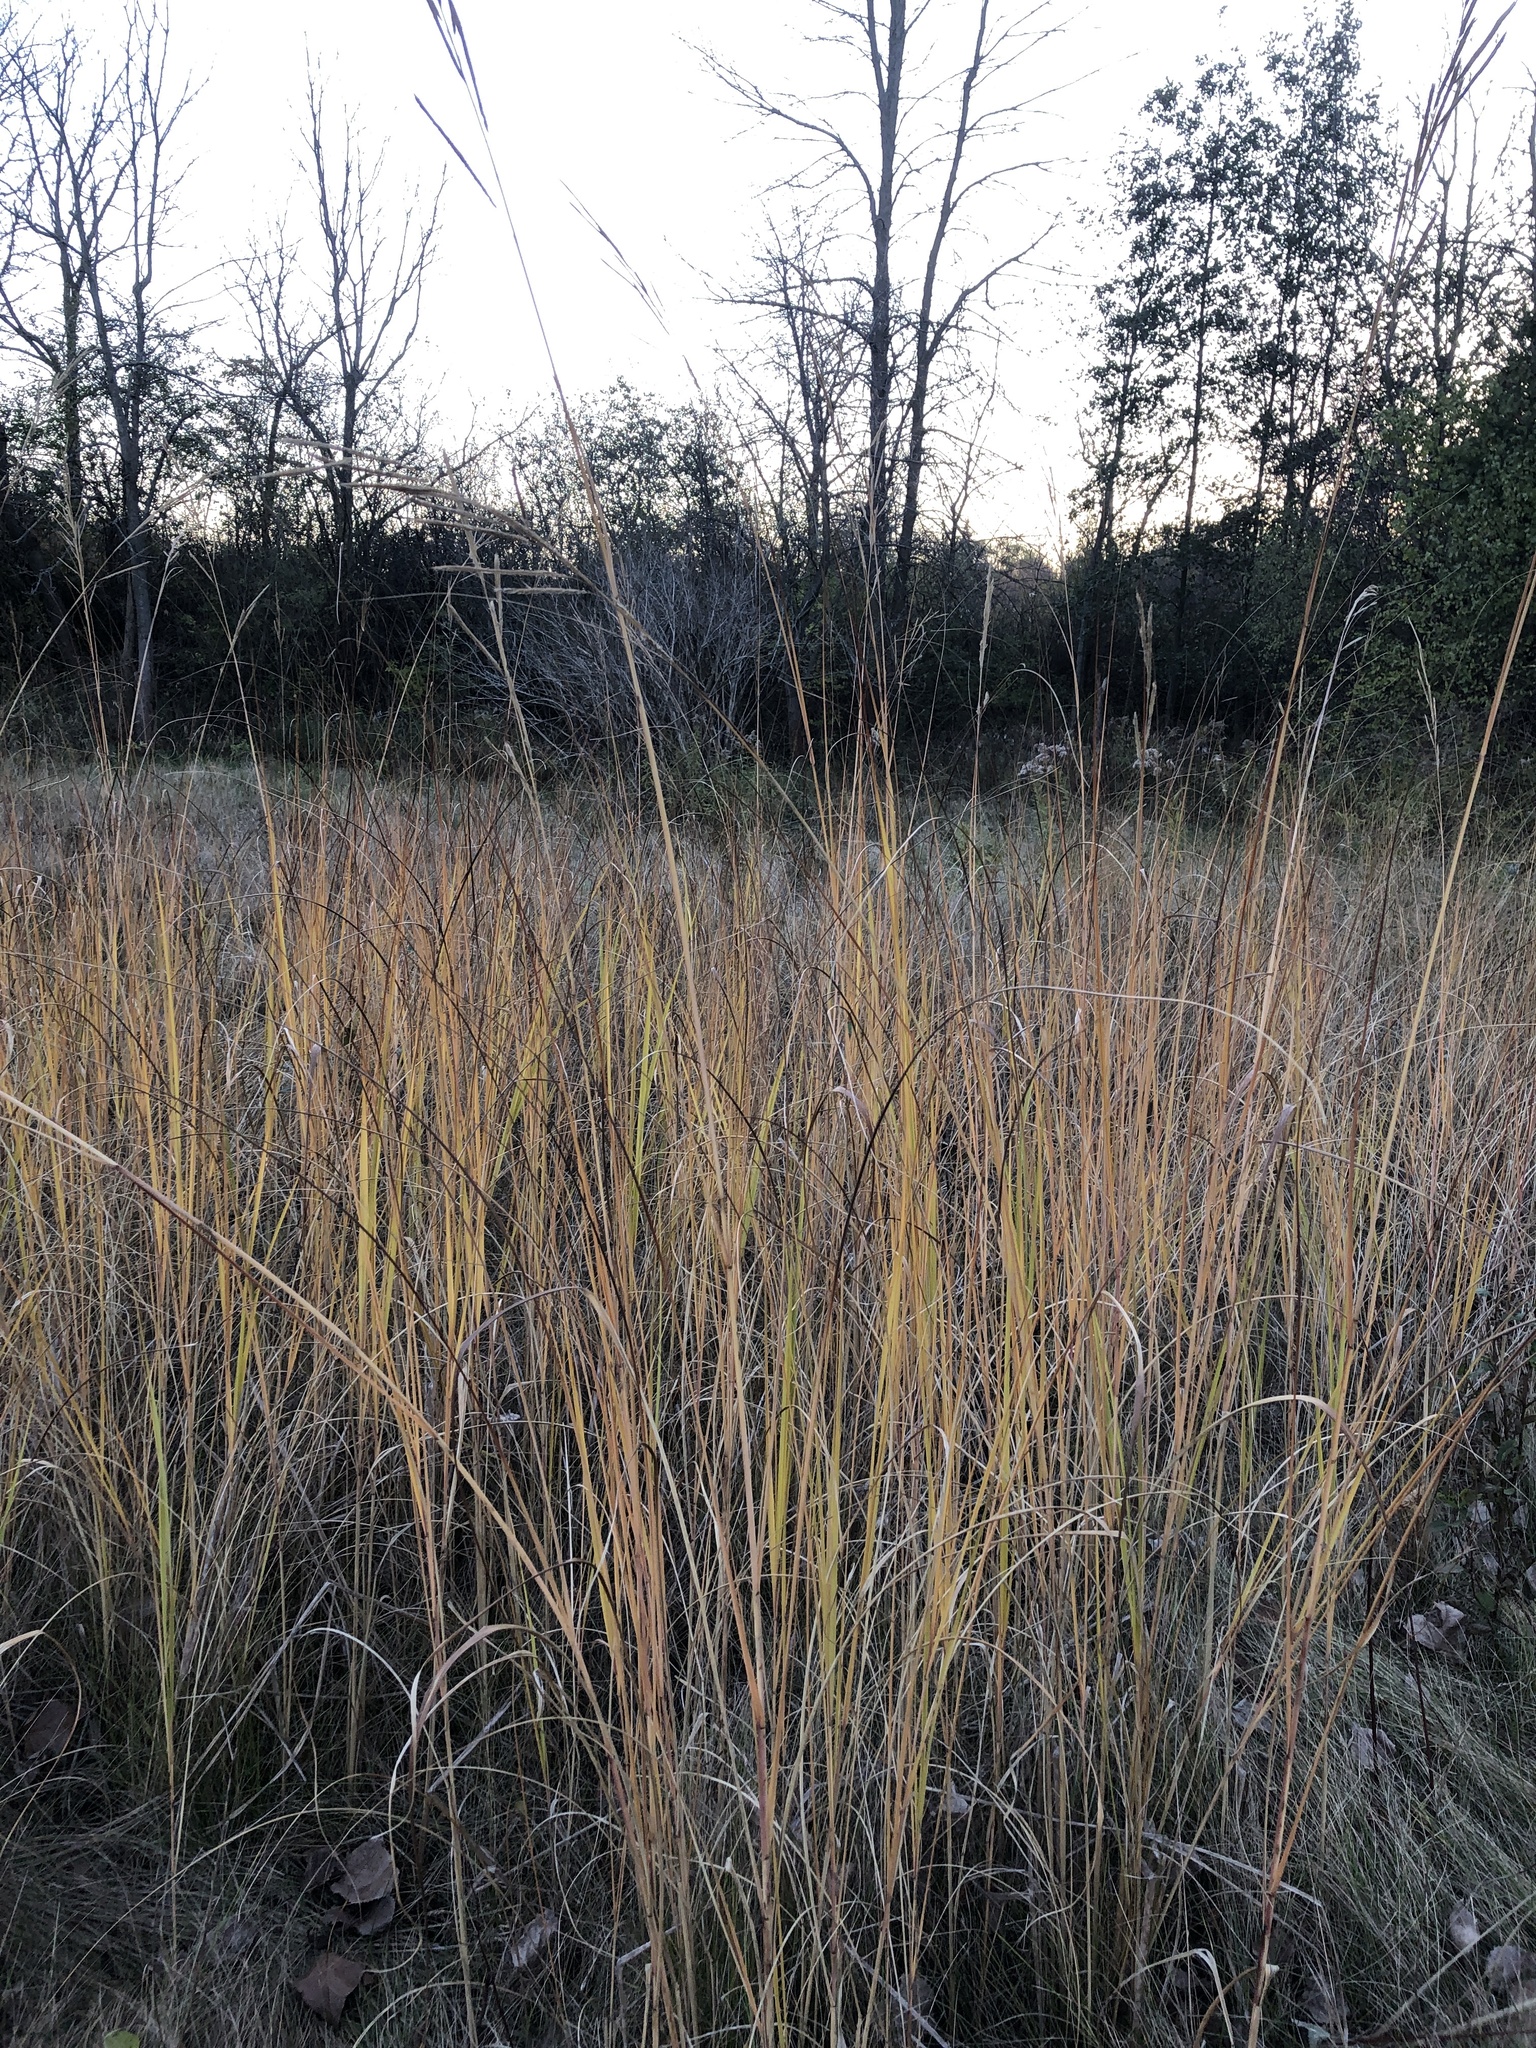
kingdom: Plantae
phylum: Tracheophyta
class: Liliopsida
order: Poales
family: Poaceae
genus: Sporobolus
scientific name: Sporobolus michauxianus
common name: Freshwater cordgrass
